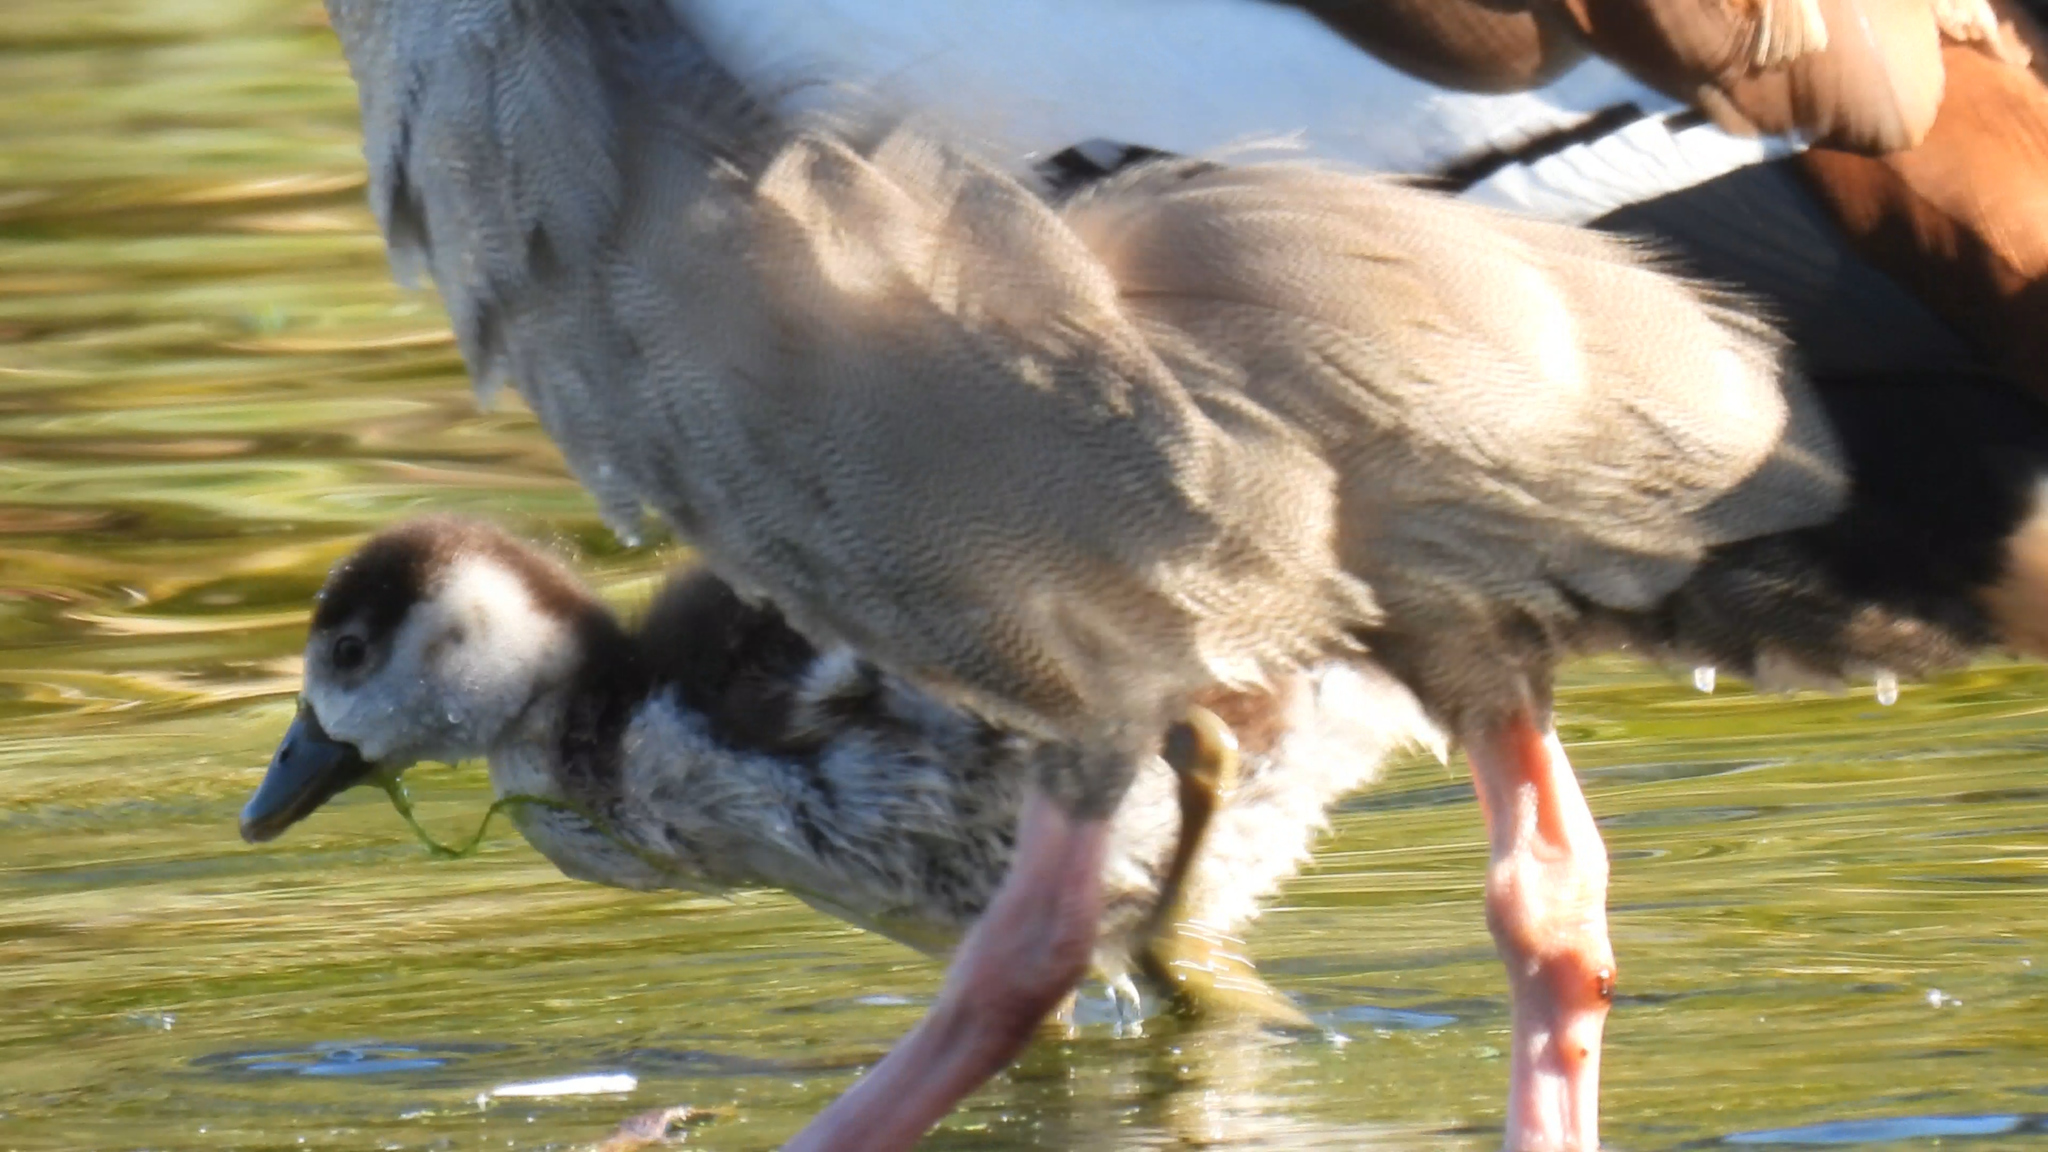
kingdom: Animalia
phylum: Chordata
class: Aves
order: Anseriformes
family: Anatidae
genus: Alopochen
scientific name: Alopochen aegyptiaca
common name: Egyptian goose
